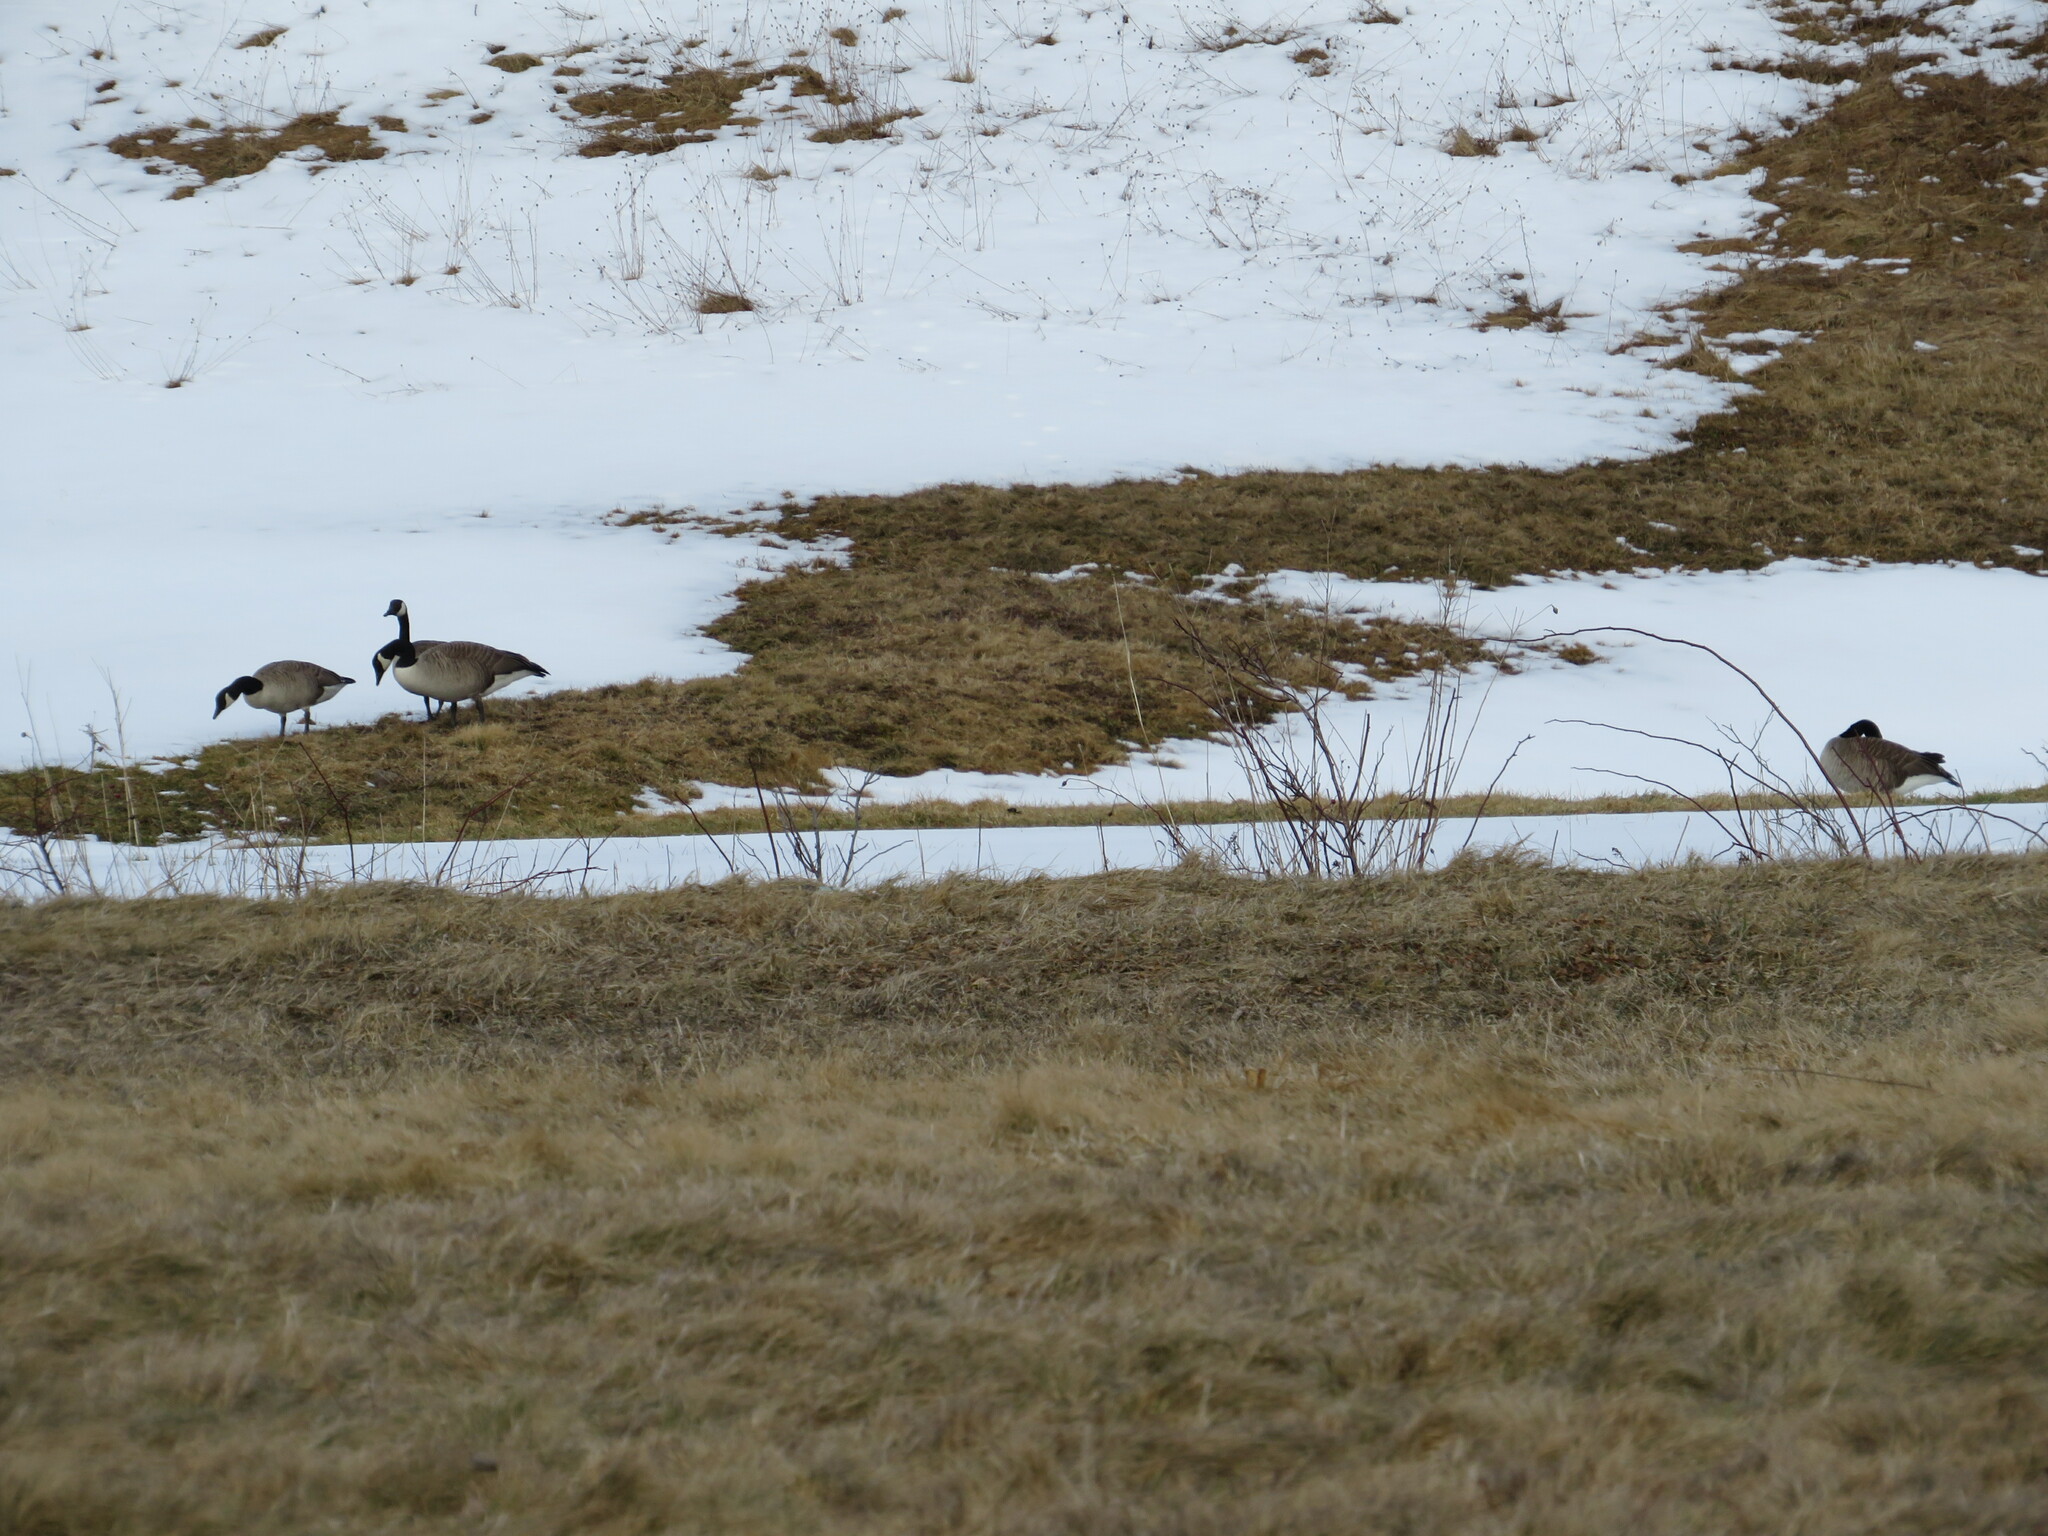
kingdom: Animalia
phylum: Chordata
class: Aves
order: Anseriformes
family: Anatidae
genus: Branta
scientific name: Branta canadensis
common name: Canada goose
